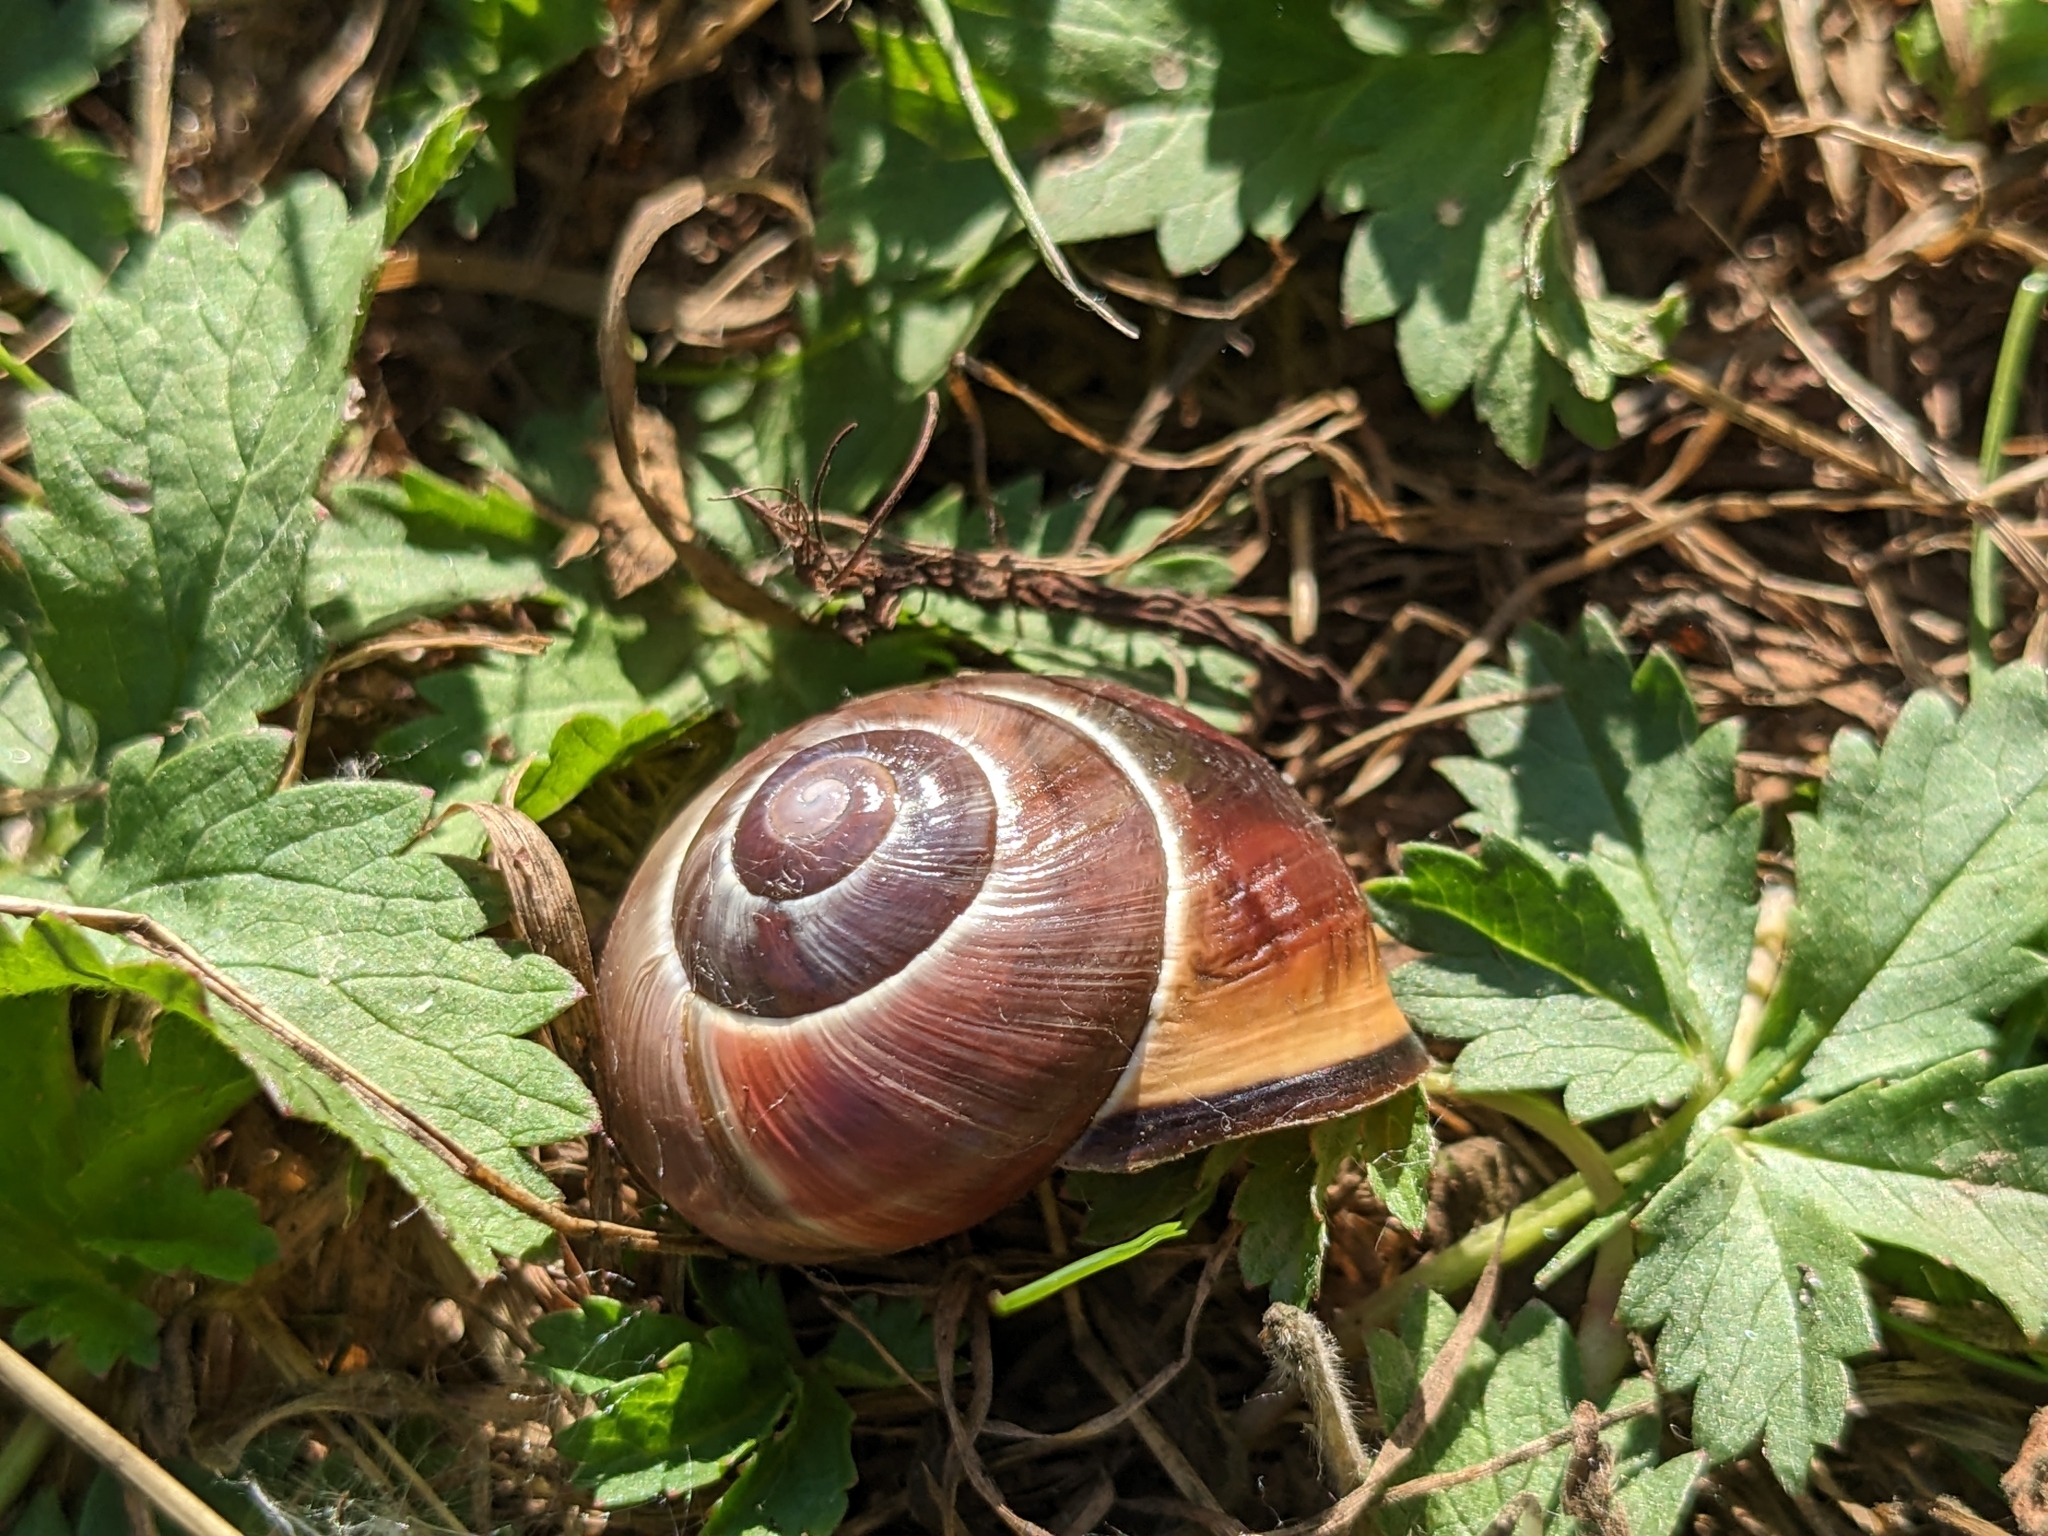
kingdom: Animalia
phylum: Mollusca
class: Gastropoda
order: Stylommatophora
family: Helicidae
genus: Cepaea
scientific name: Cepaea nemoralis
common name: Grovesnail
